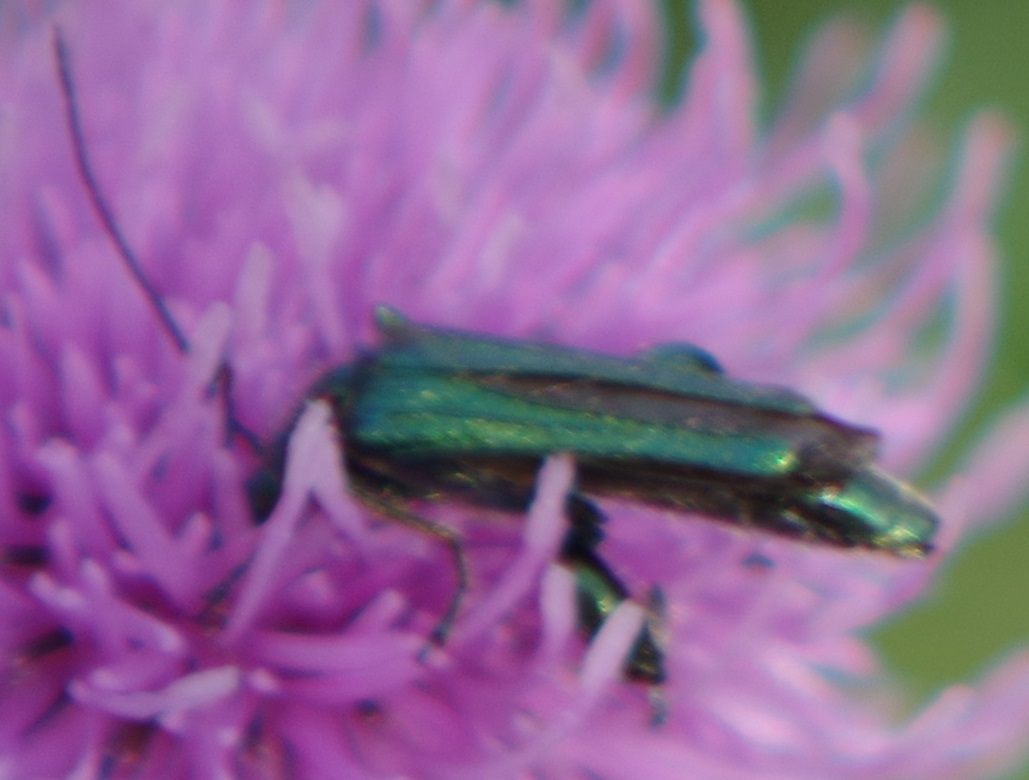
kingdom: Animalia
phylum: Arthropoda
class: Insecta
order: Coleoptera
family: Oedemeridae
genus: Oedemera
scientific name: Oedemera nobilis
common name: Swollen-thighed beetle
